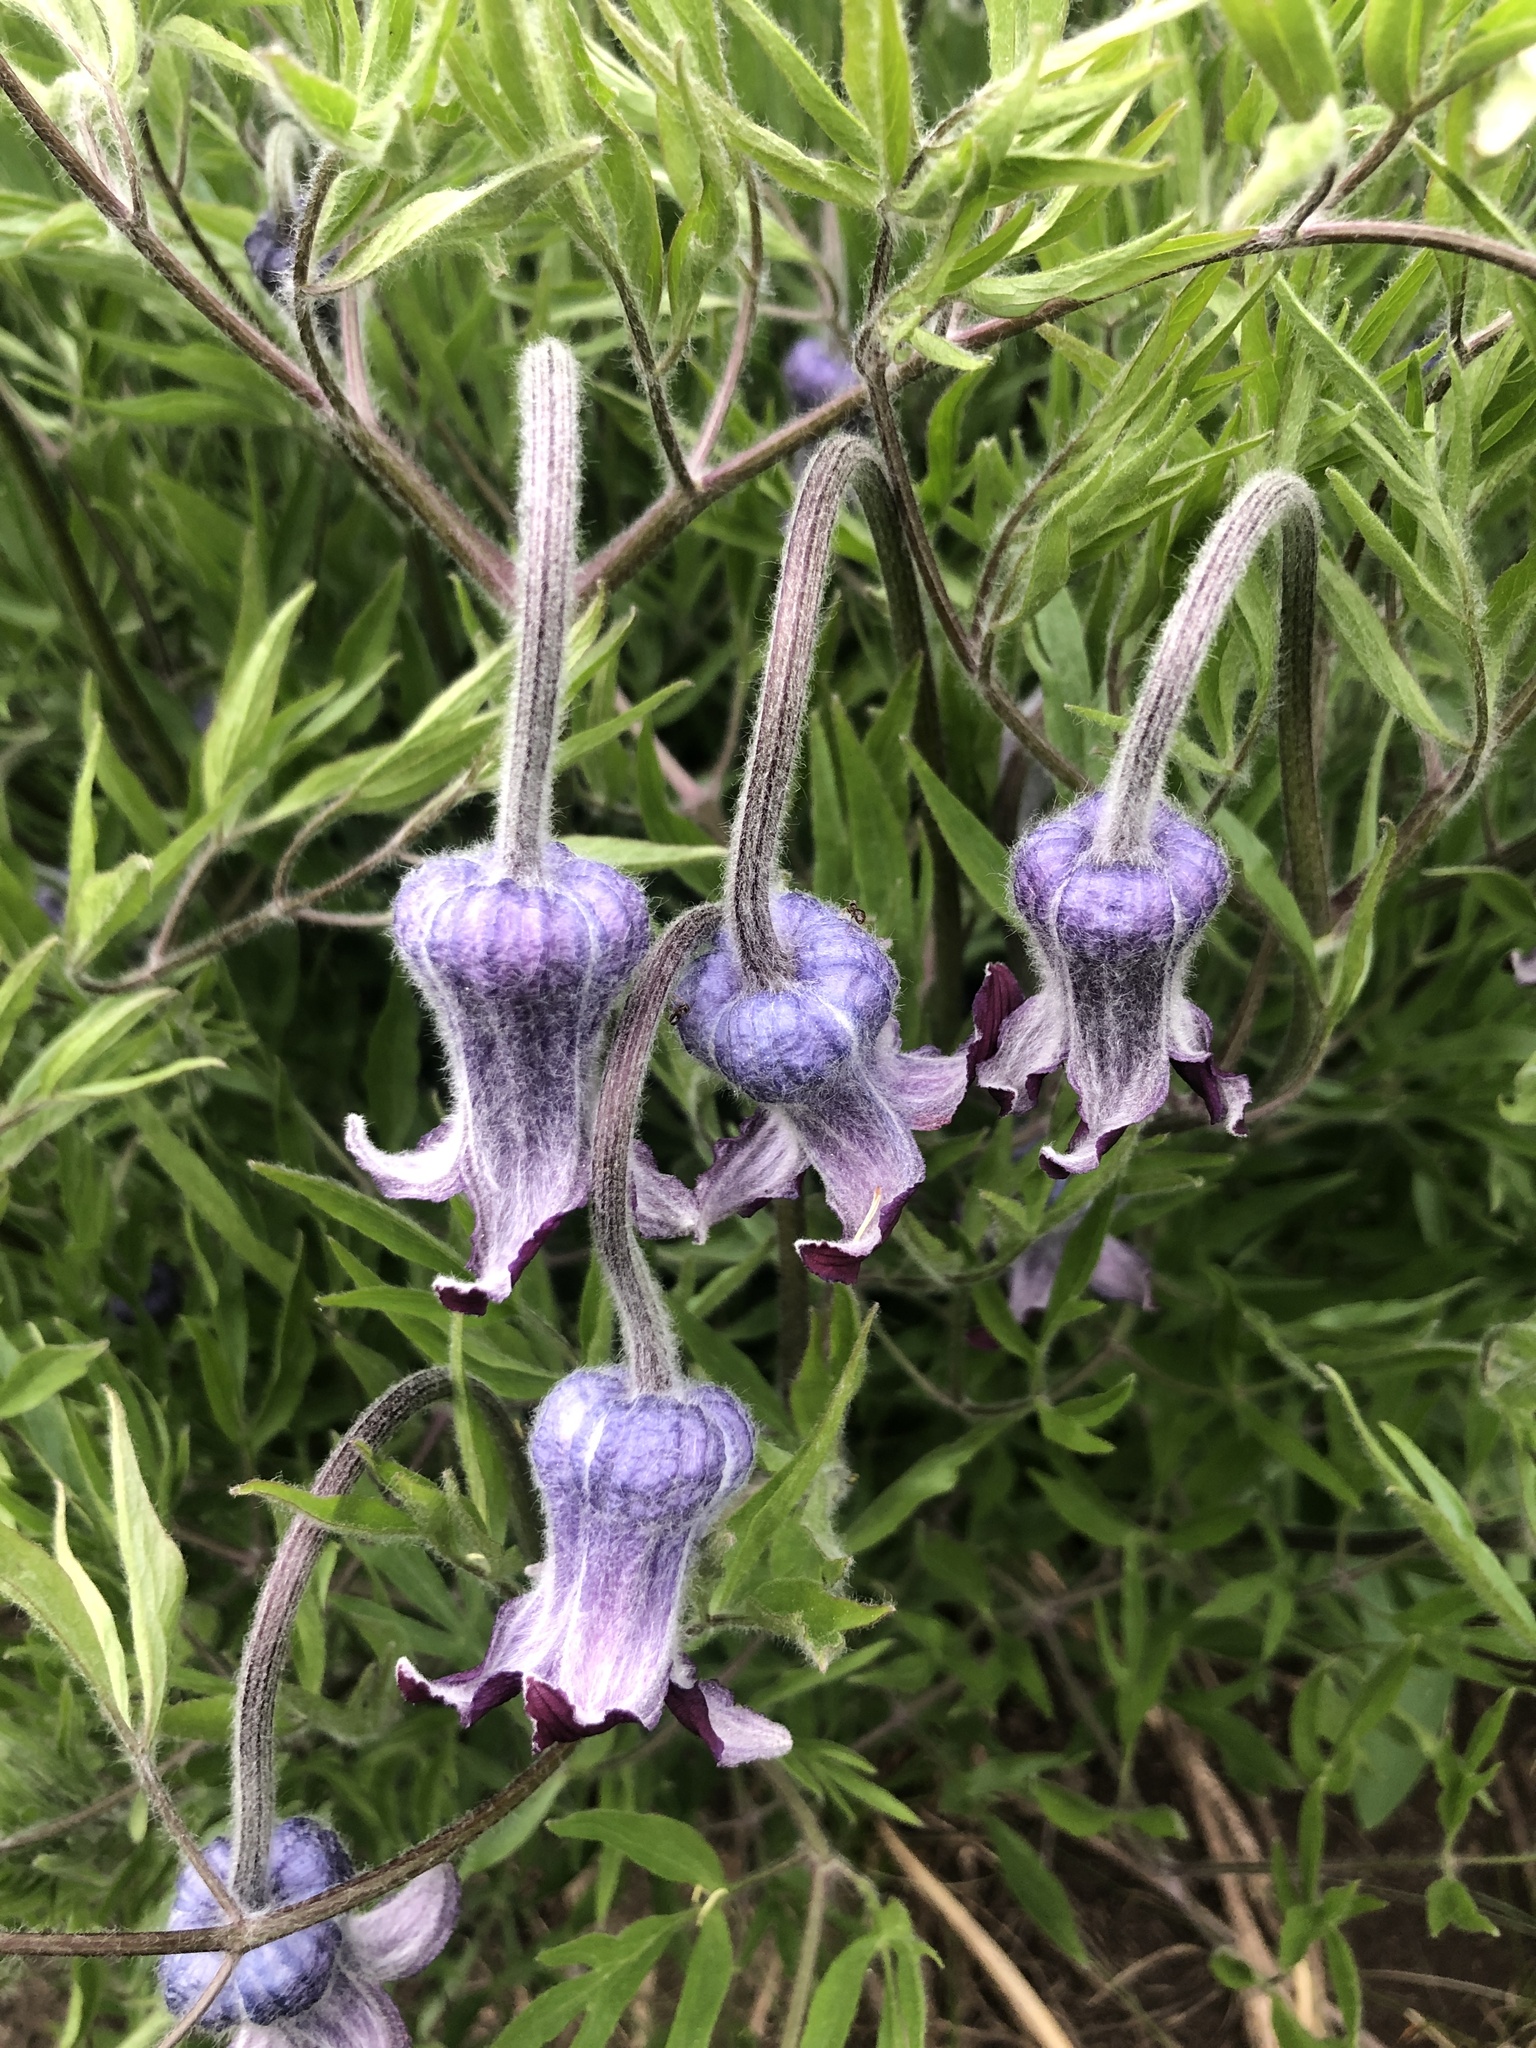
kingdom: Plantae
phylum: Tracheophyta
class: Magnoliopsida
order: Ranunculales
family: Ranunculaceae
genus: Clematis
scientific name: Clematis hirsutissima
